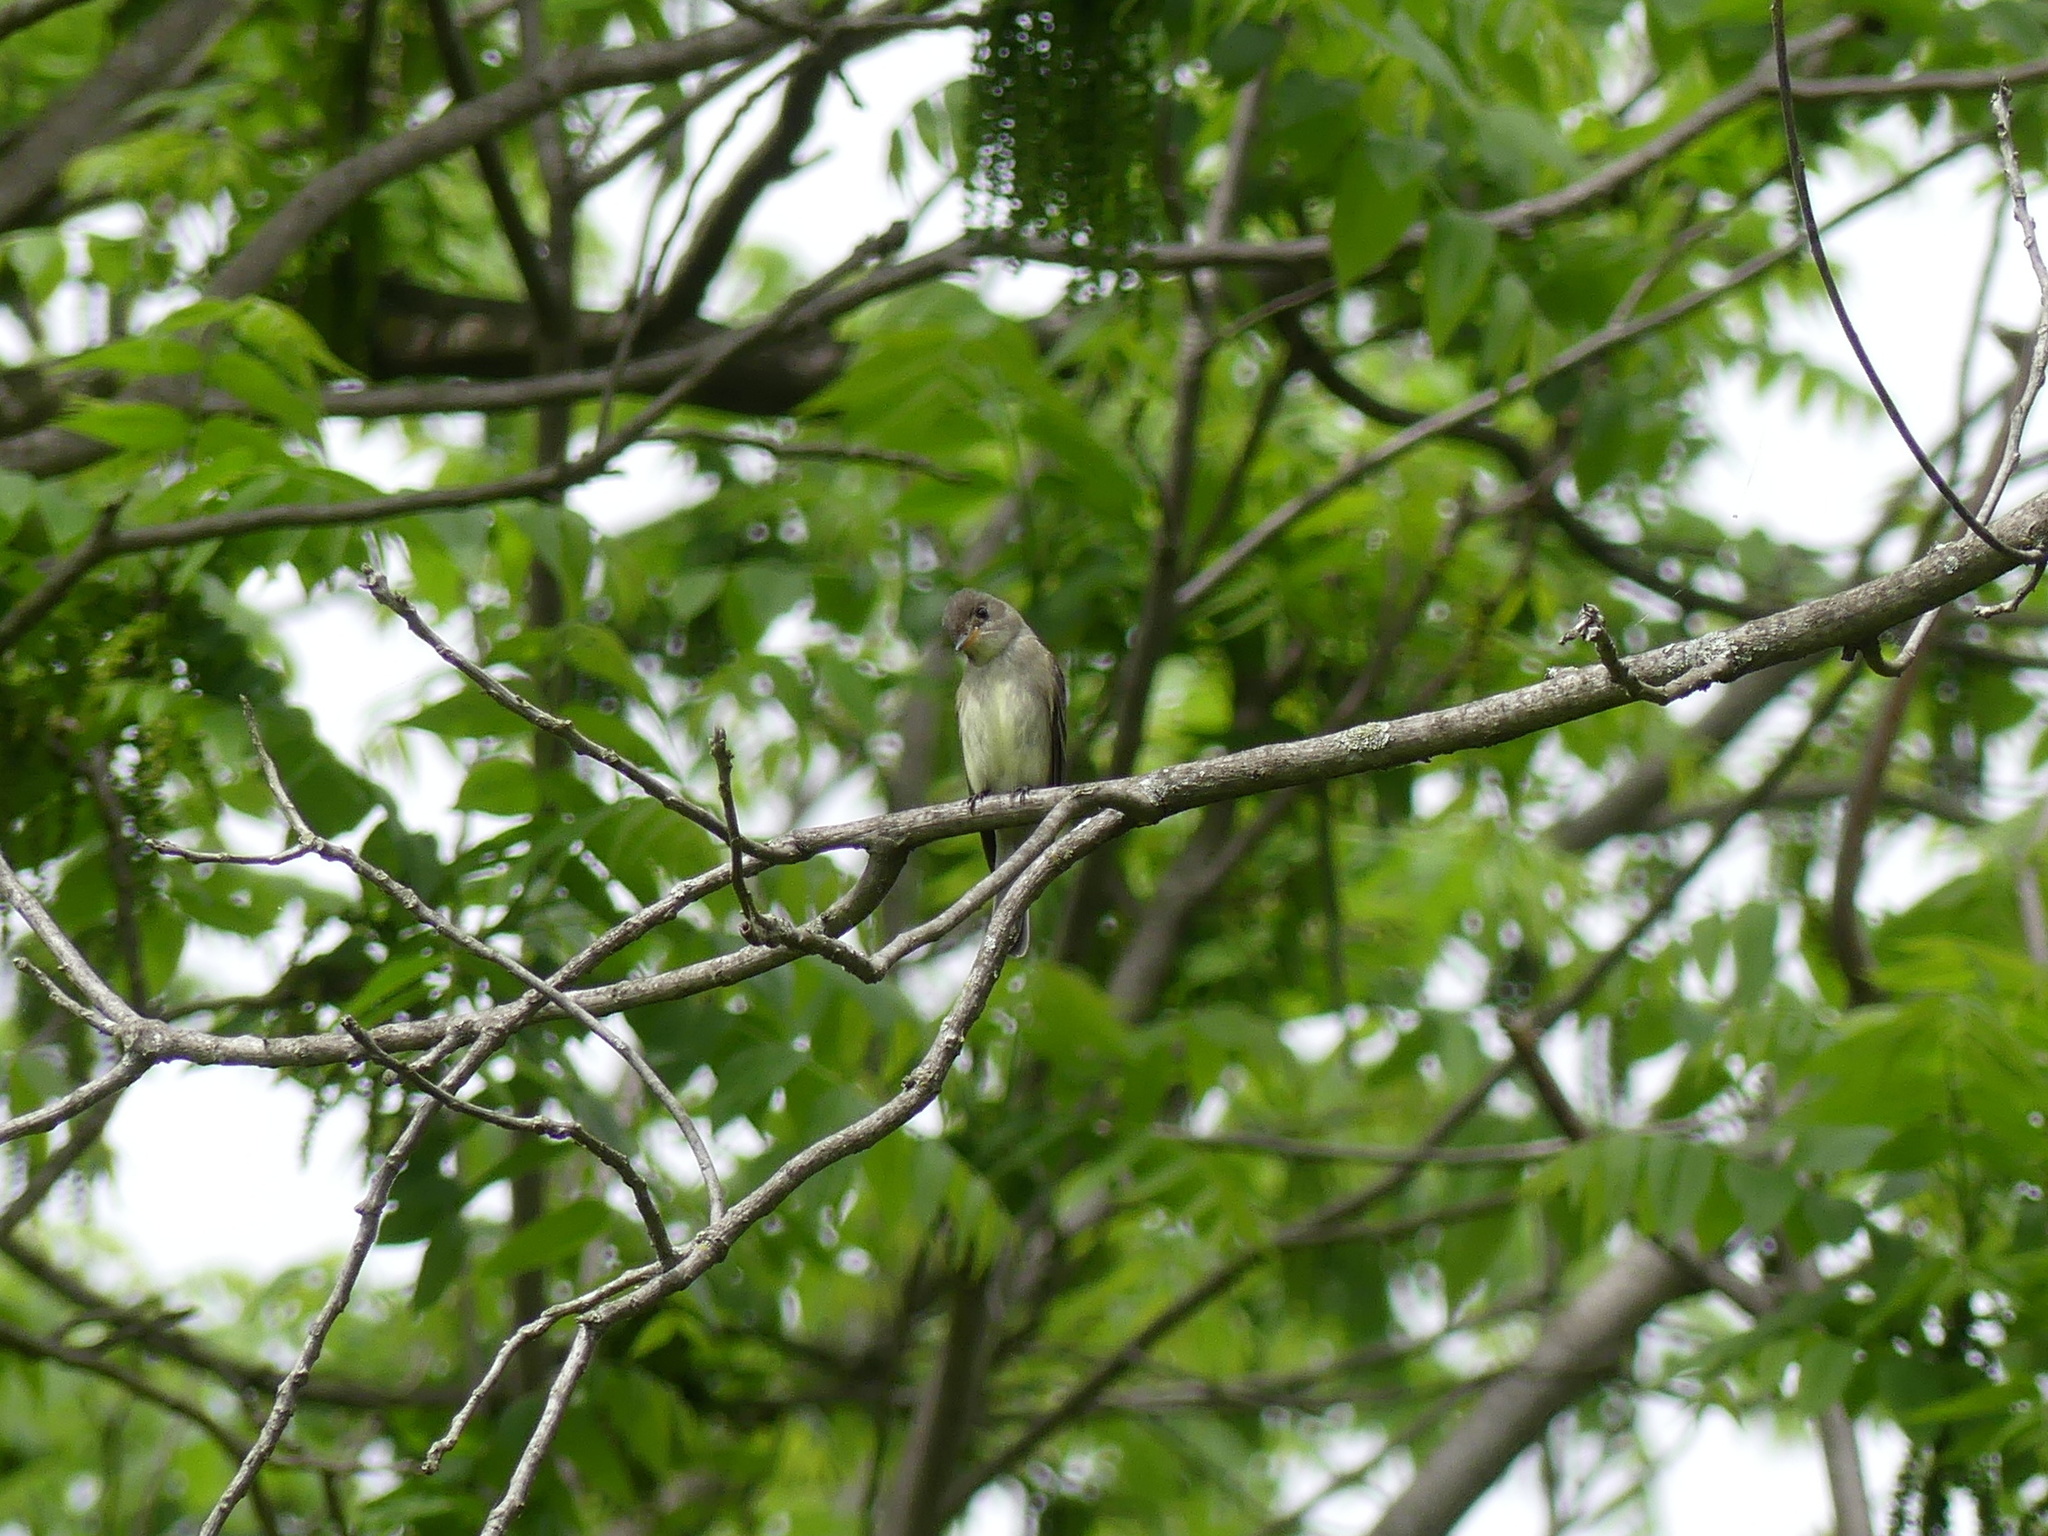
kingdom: Animalia
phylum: Chordata
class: Aves
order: Passeriformes
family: Tyrannidae
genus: Contopus
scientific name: Contopus virens
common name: Eastern wood-pewee
